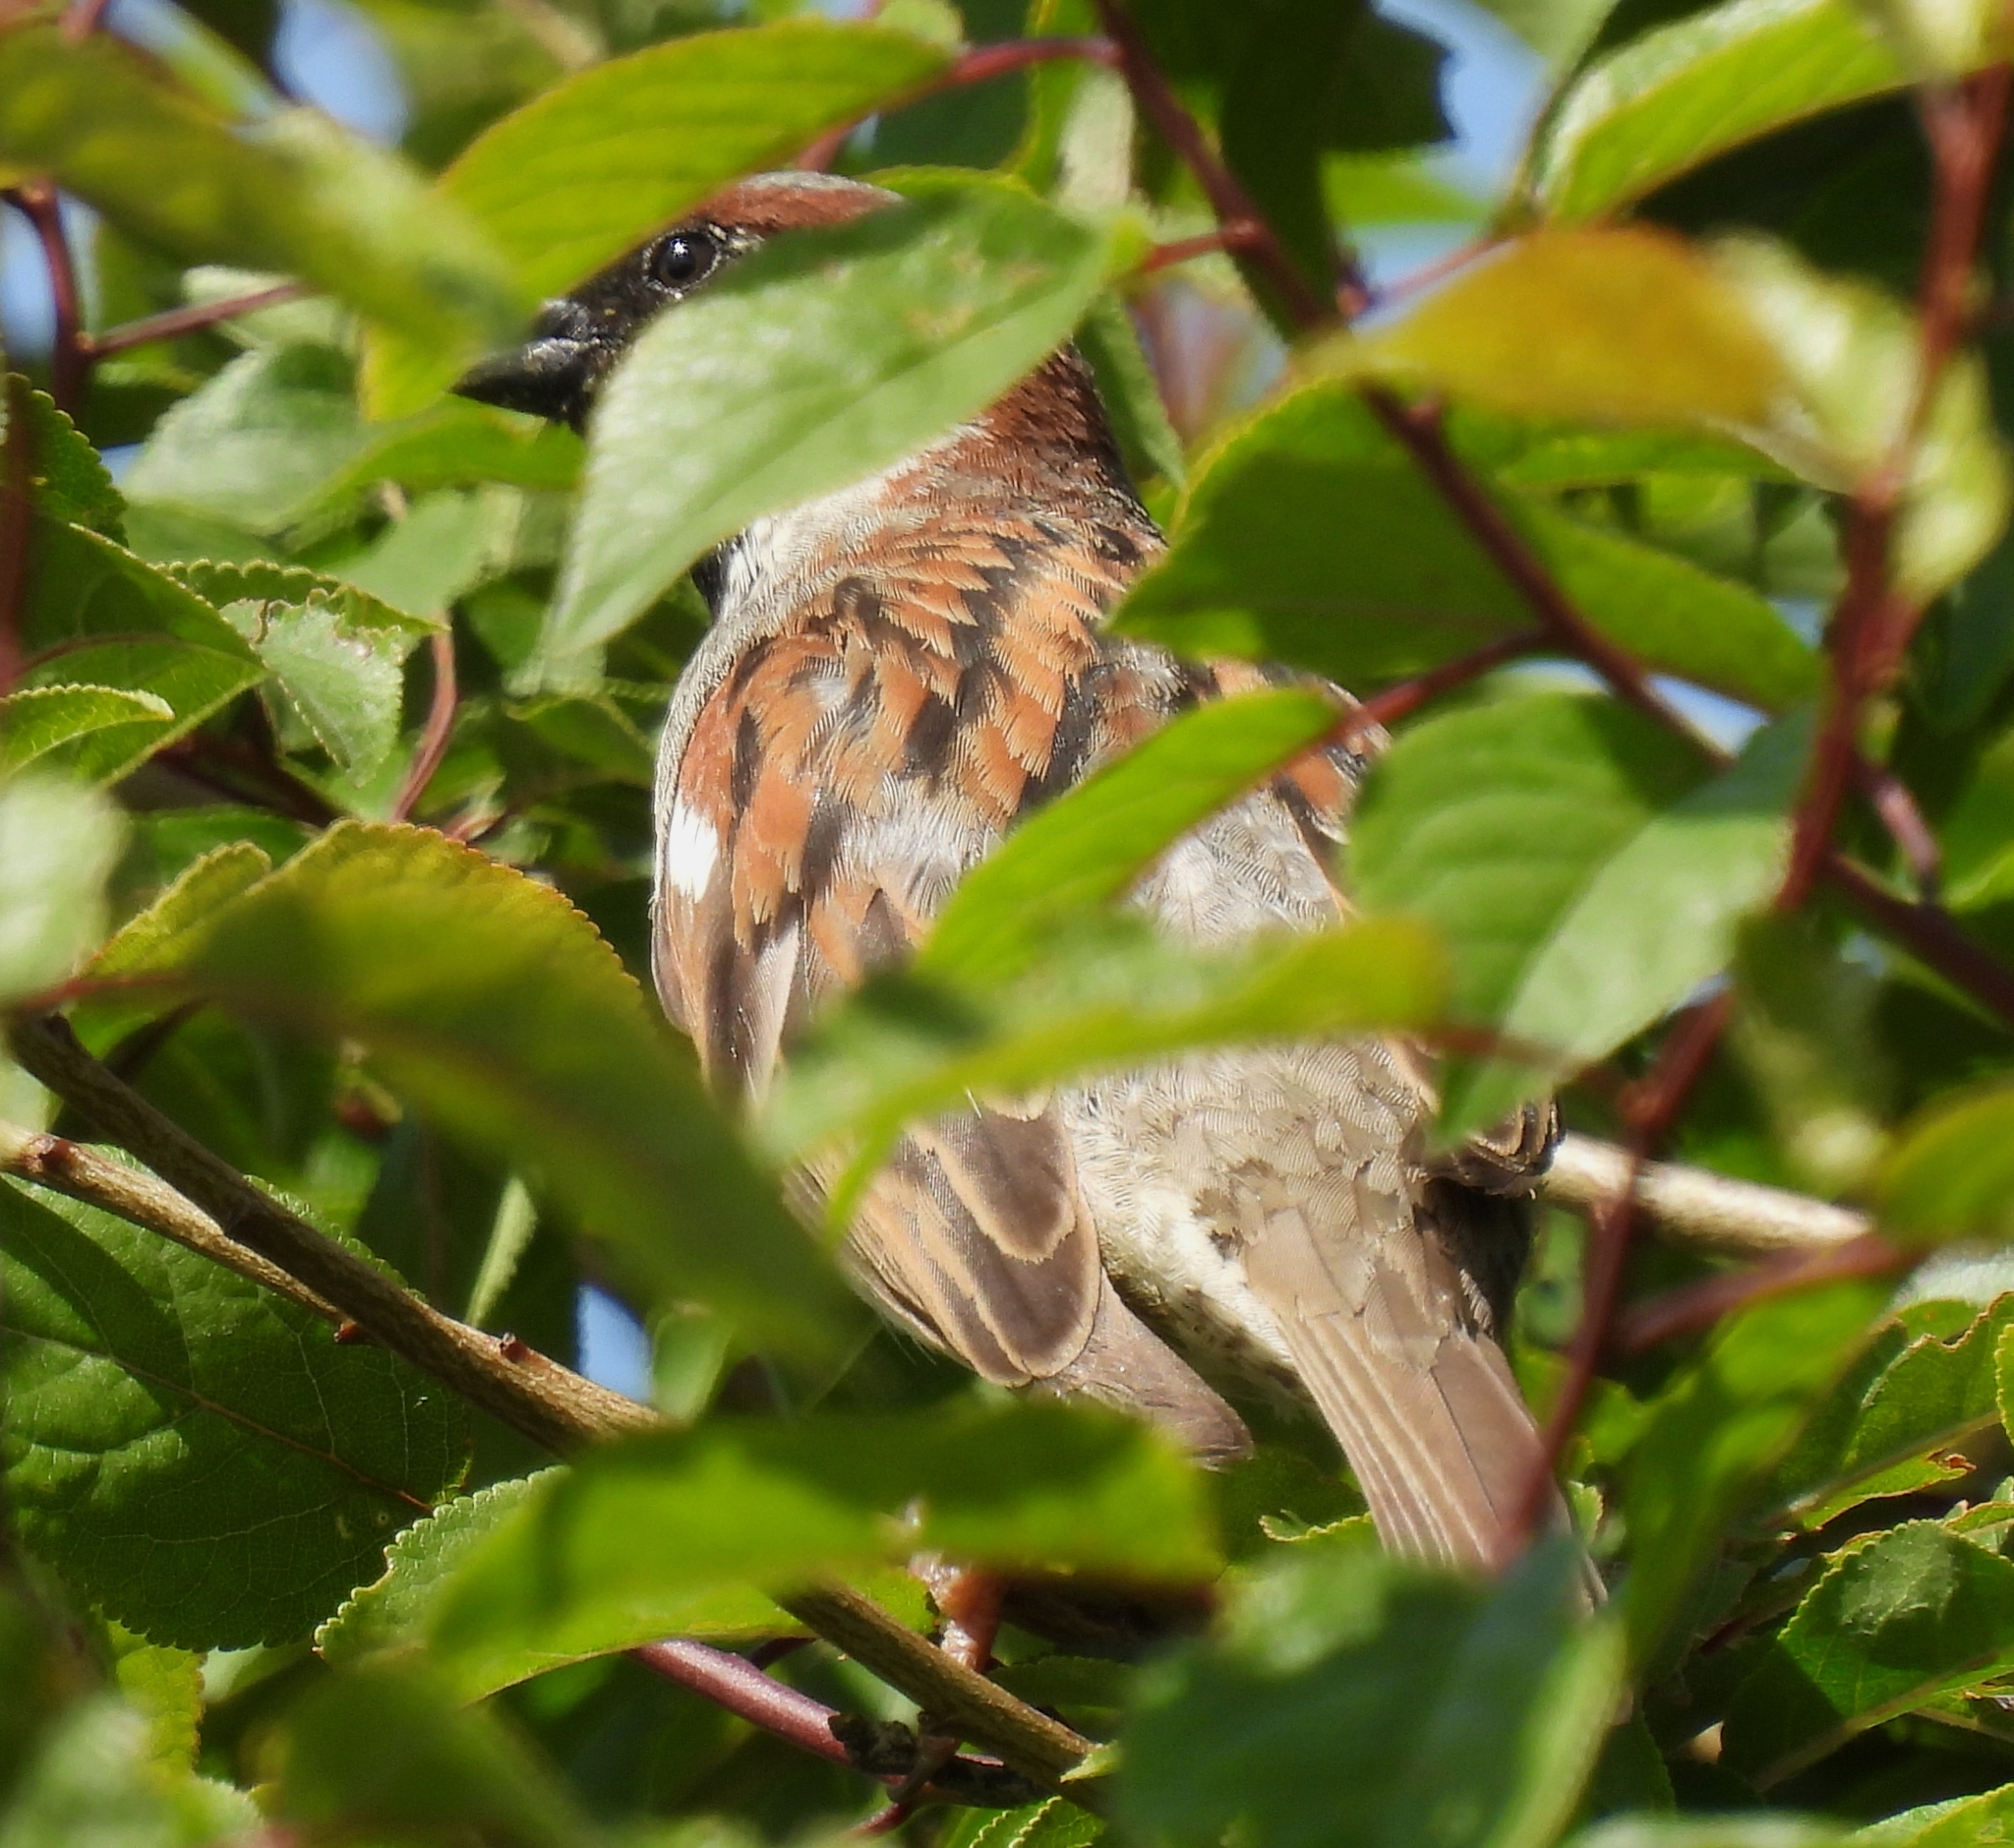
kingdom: Animalia
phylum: Chordata
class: Aves
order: Passeriformes
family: Passeridae
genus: Passer
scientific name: Passer domesticus
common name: House sparrow
